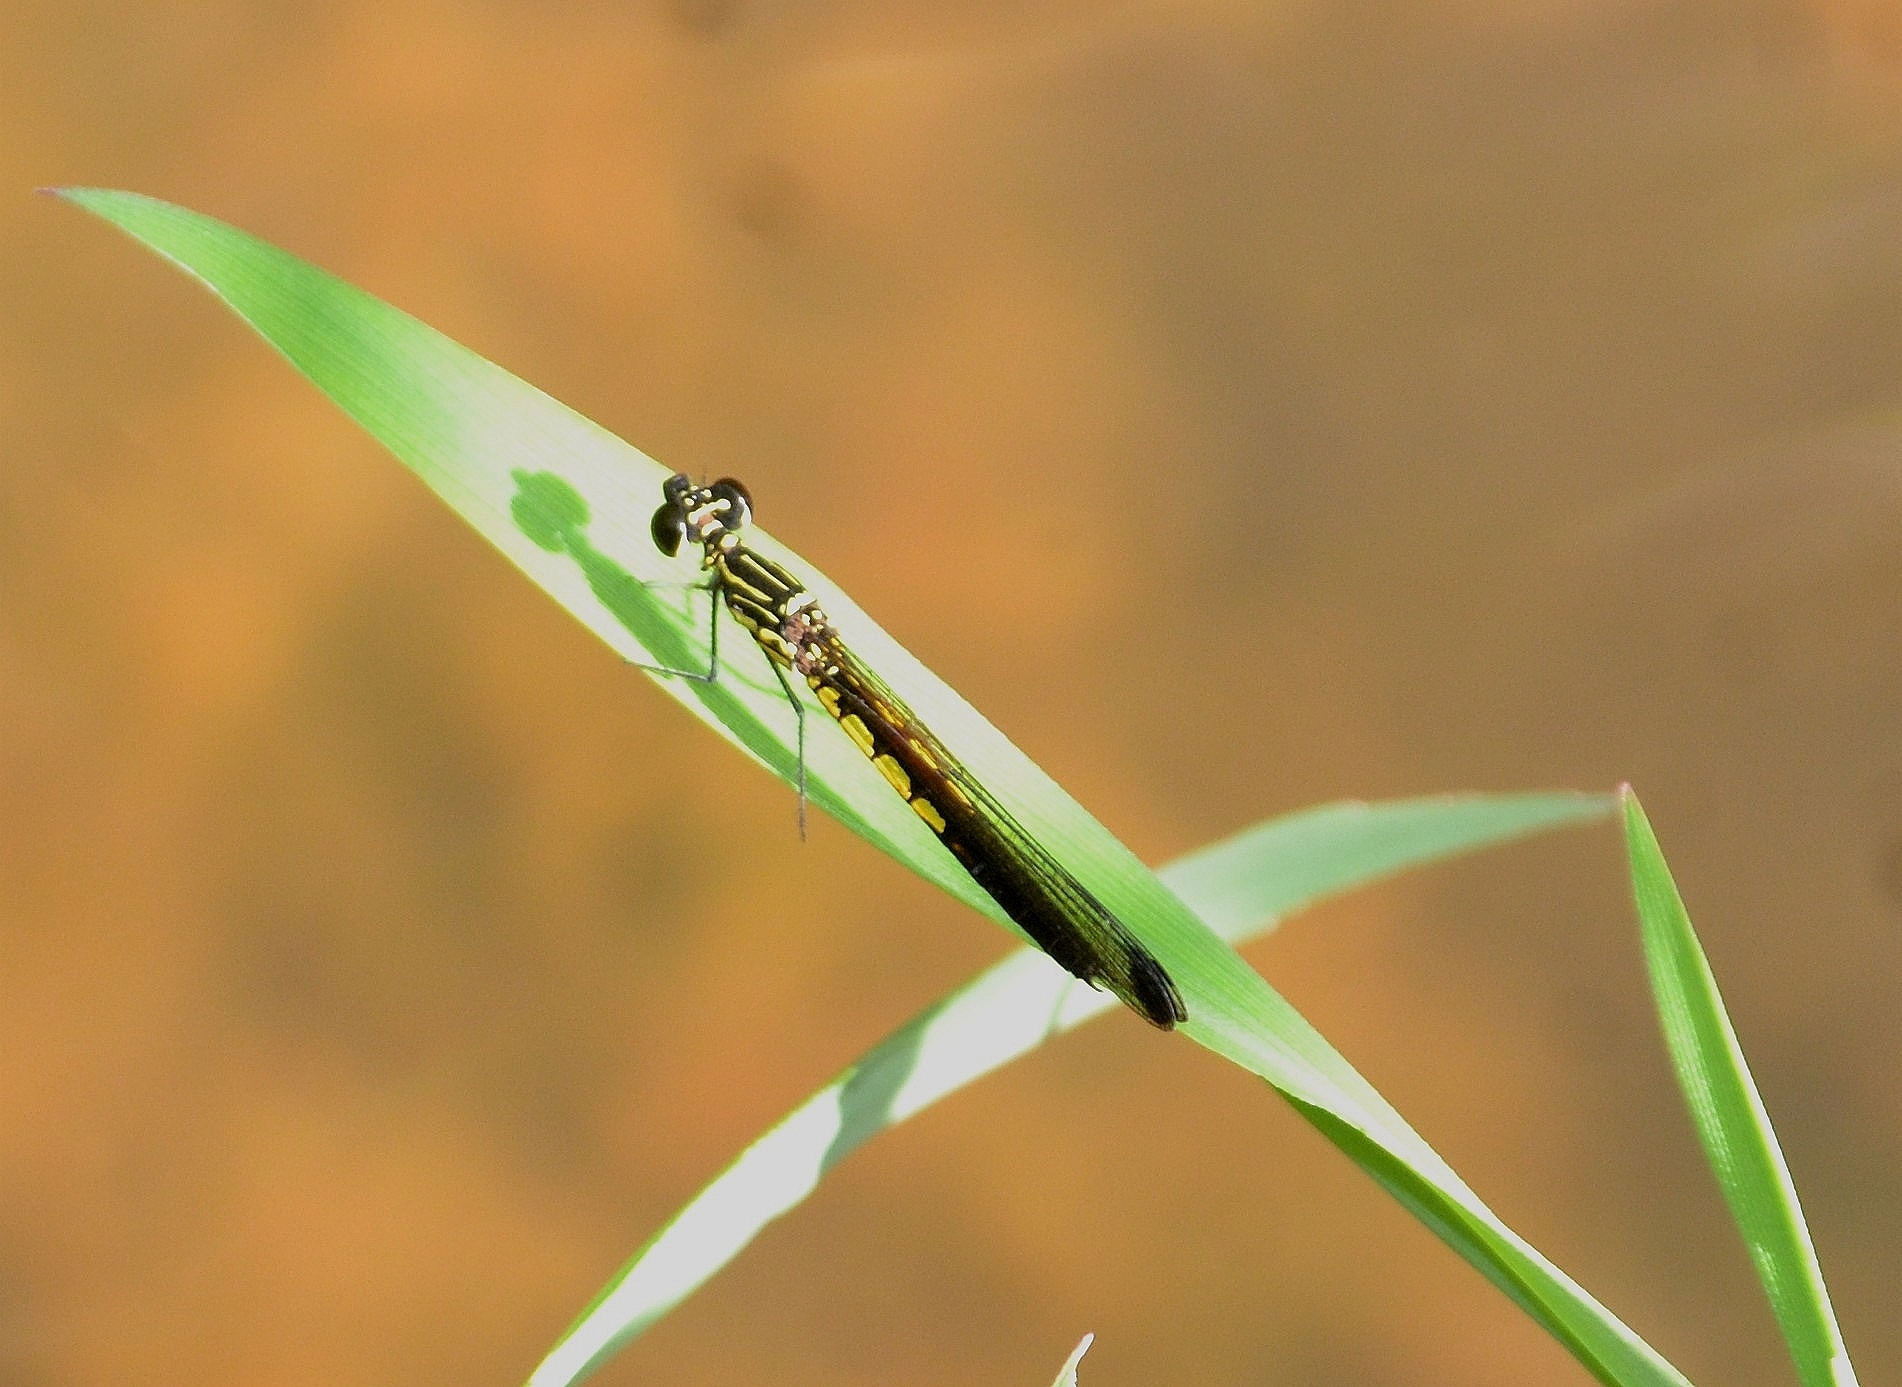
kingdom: Animalia
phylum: Arthropoda
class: Insecta
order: Odonata
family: Chlorocyphidae
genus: Libellago
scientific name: Libellago indica
